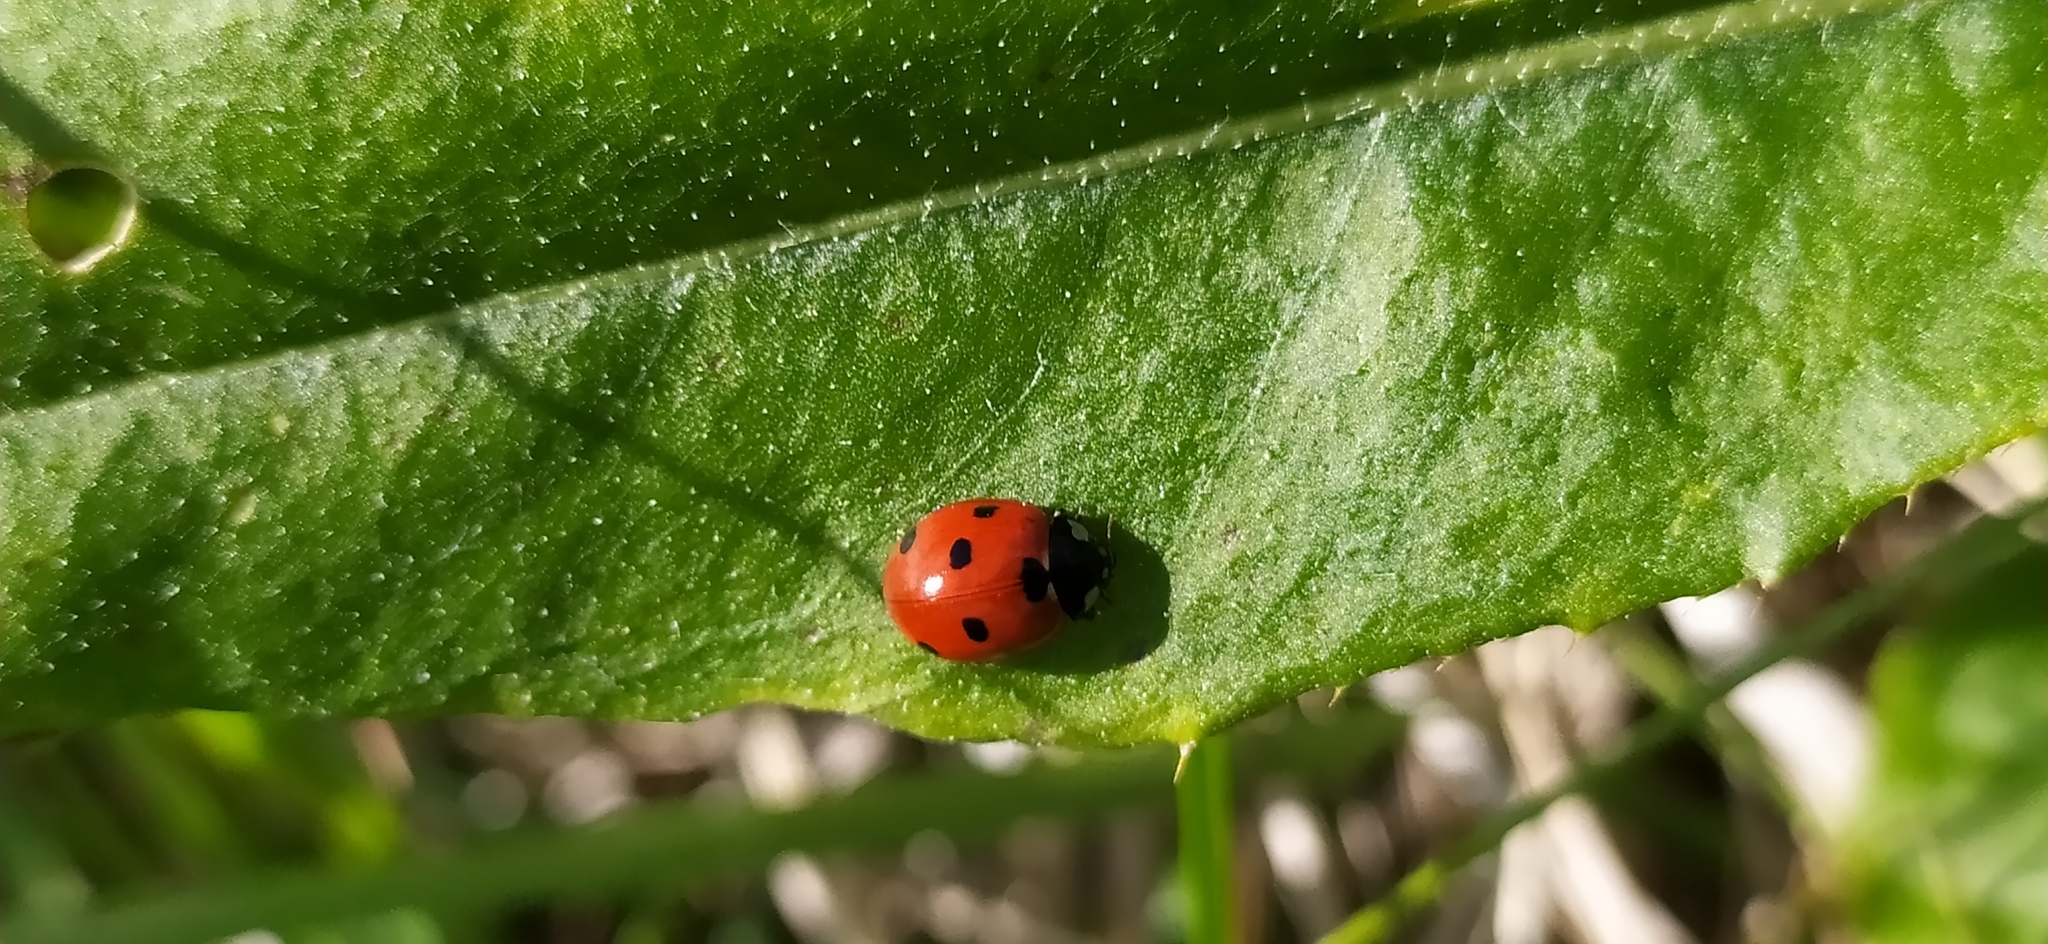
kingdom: Animalia
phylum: Arthropoda
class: Insecta
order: Coleoptera
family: Coccinellidae
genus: Coccinella
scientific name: Coccinella septempunctata
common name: Sevenspotted lady beetle
